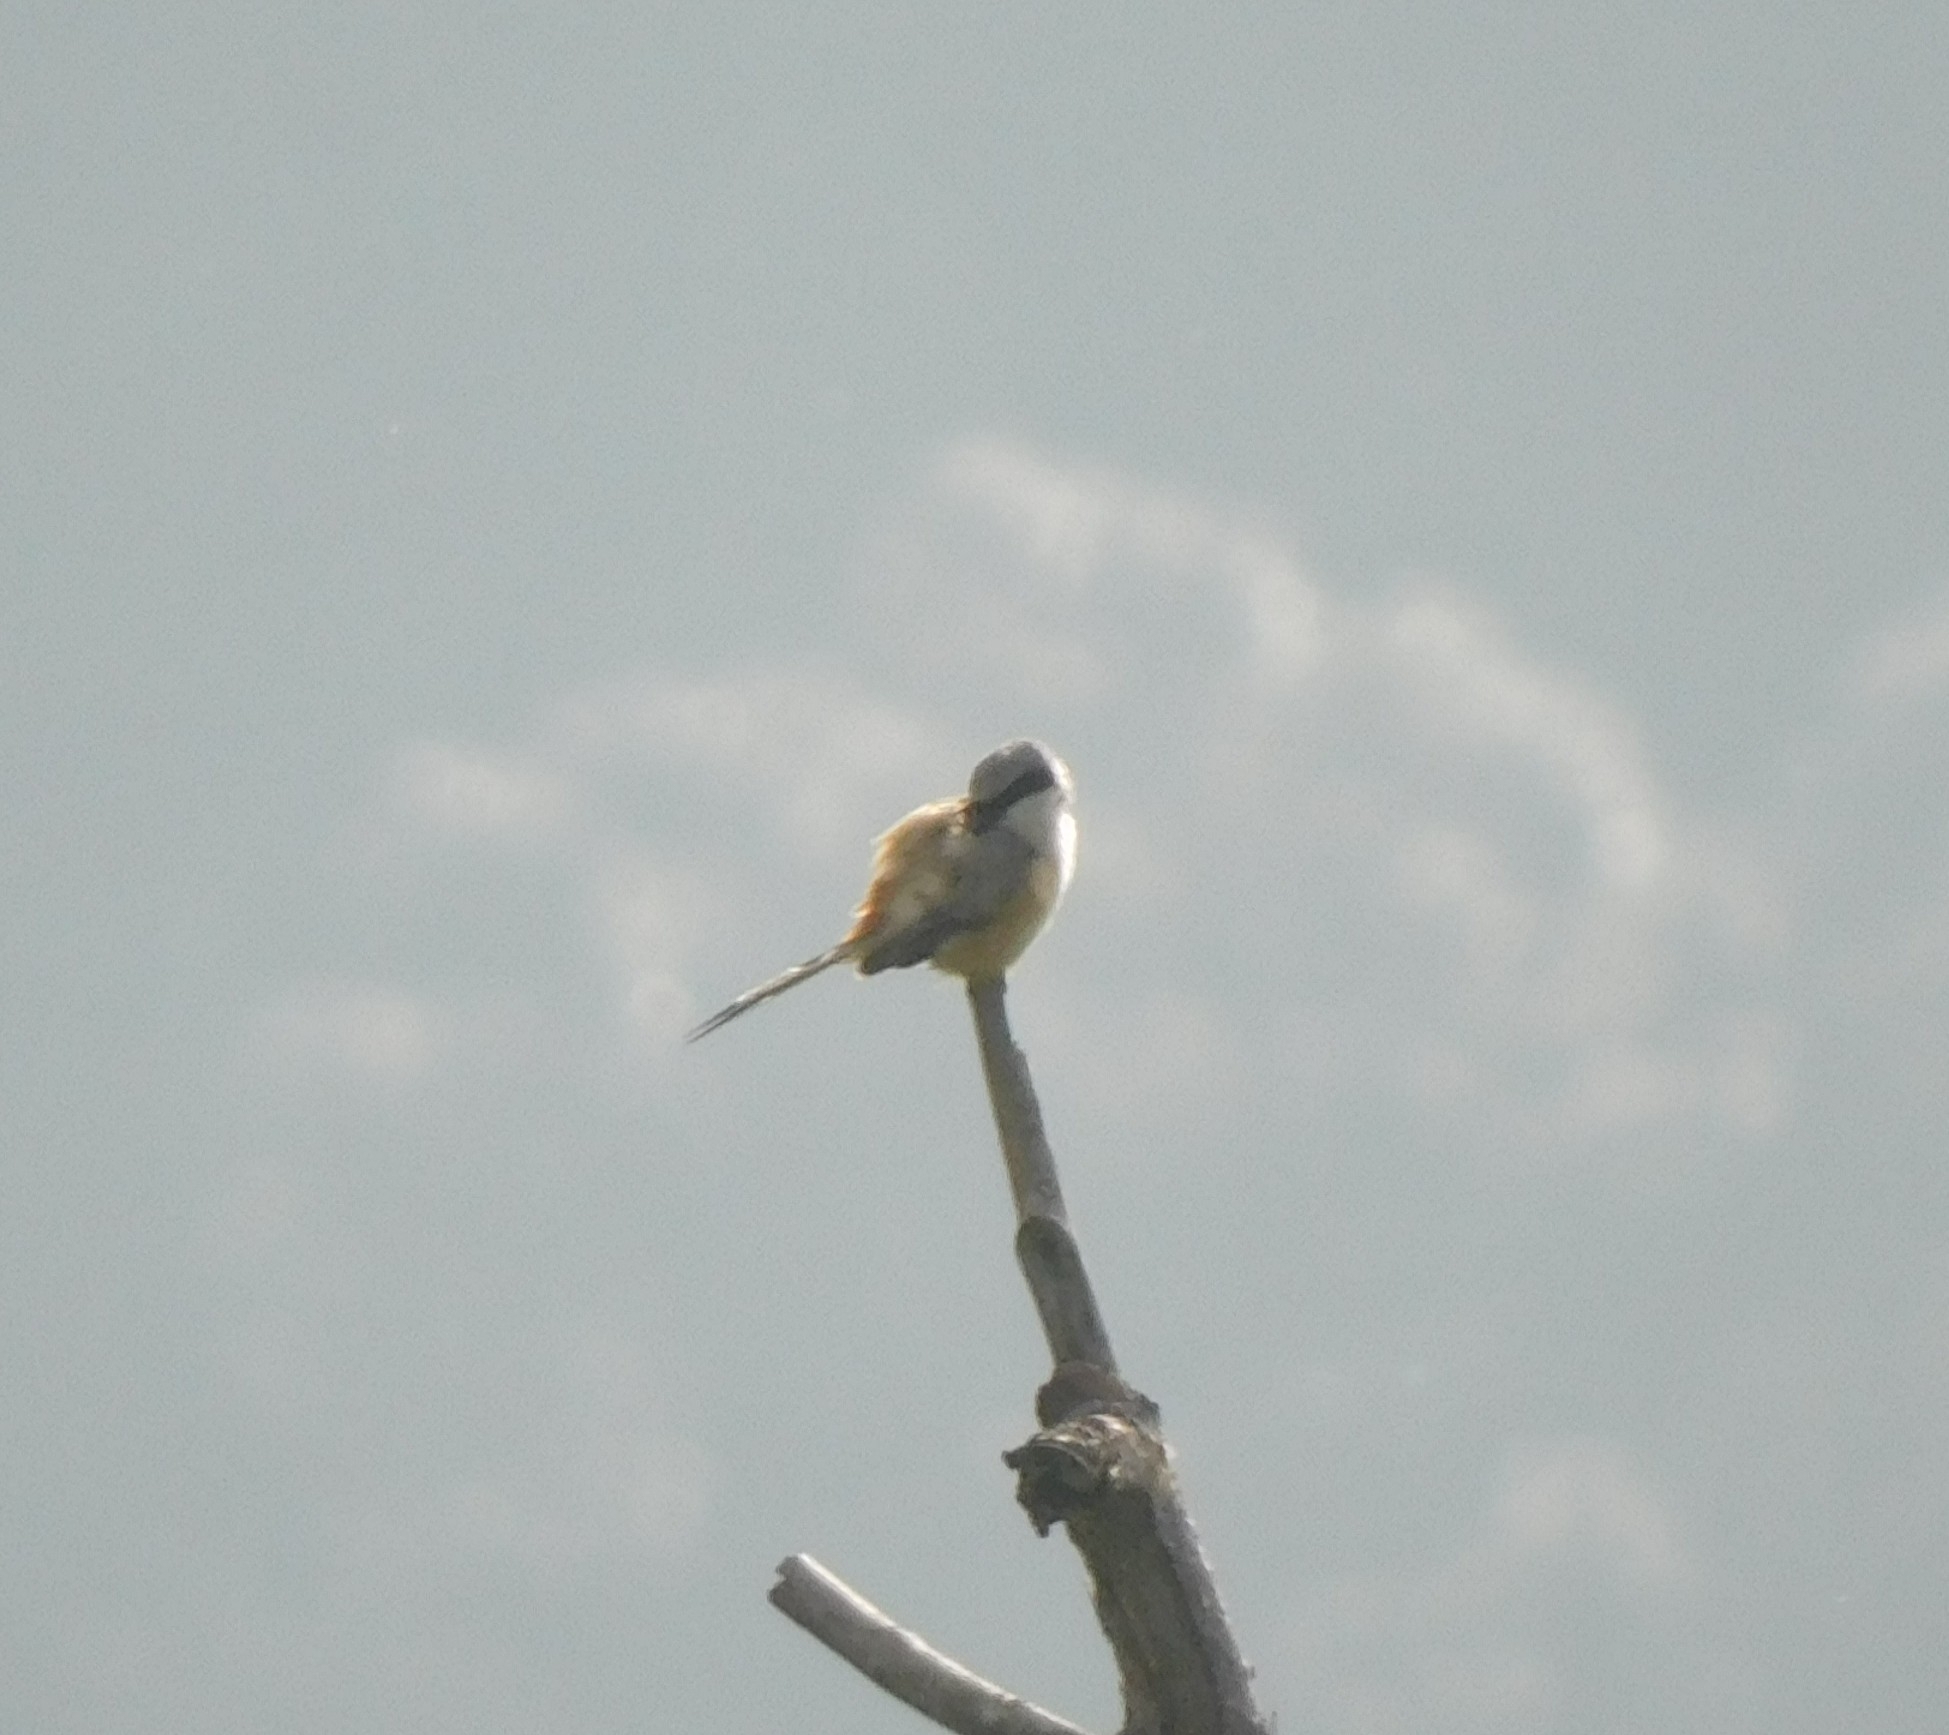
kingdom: Animalia
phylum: Chordata
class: Aves
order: Passeriformes
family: Laniidae
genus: Lanius
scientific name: Lanius schach
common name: Long-tailed shrike
